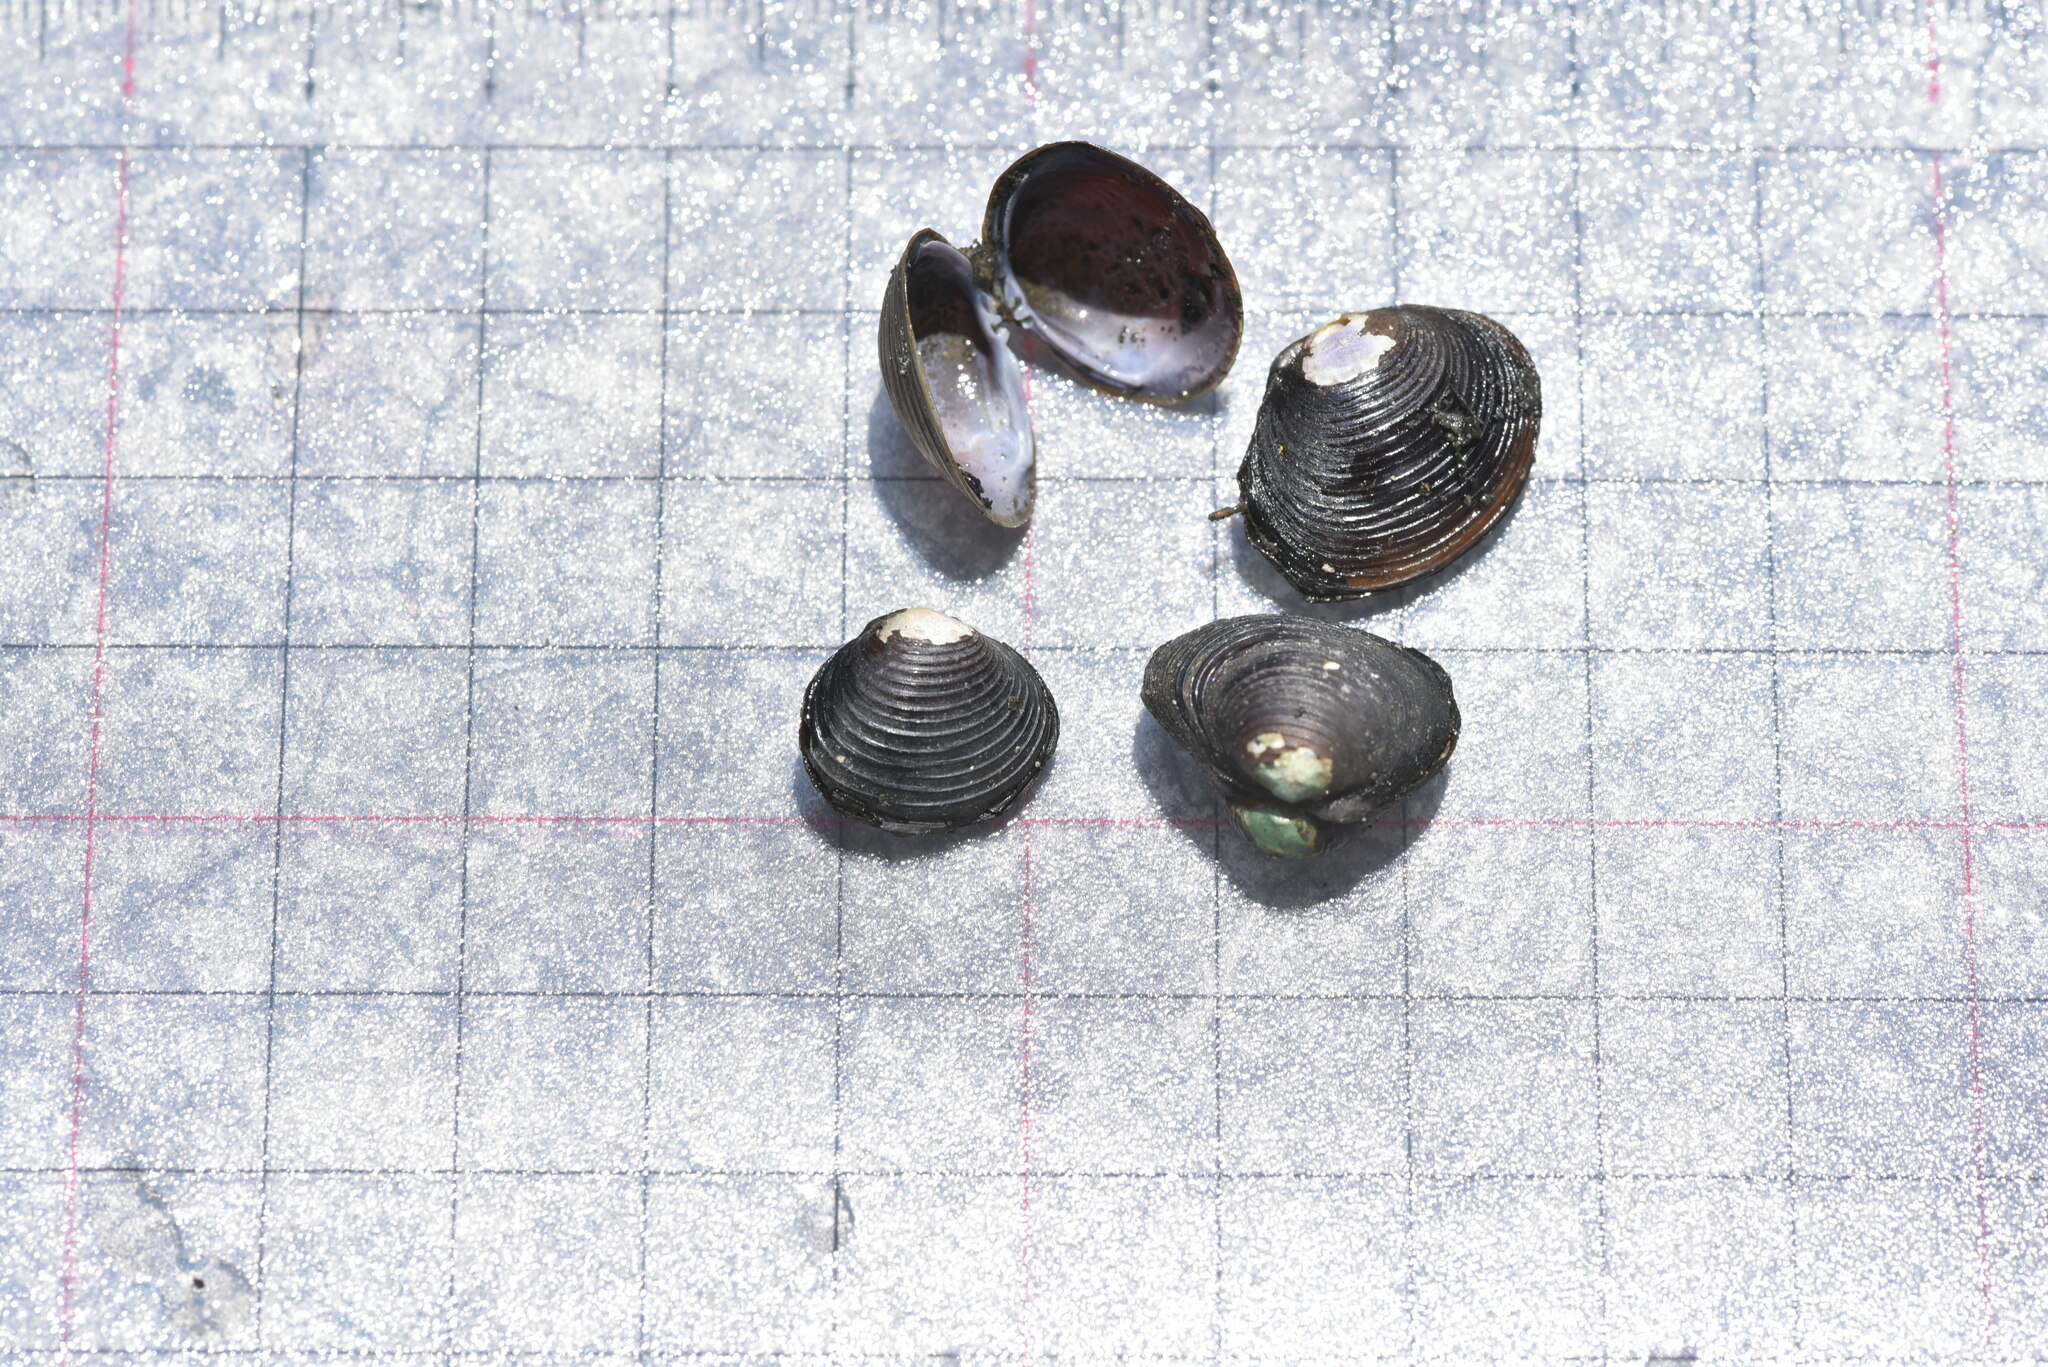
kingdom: Animalia
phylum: Mollusca
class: Bivalvia
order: Venerida
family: Cyrenidae
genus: Corbicula
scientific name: Corbicula fluminea
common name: Asian clam
